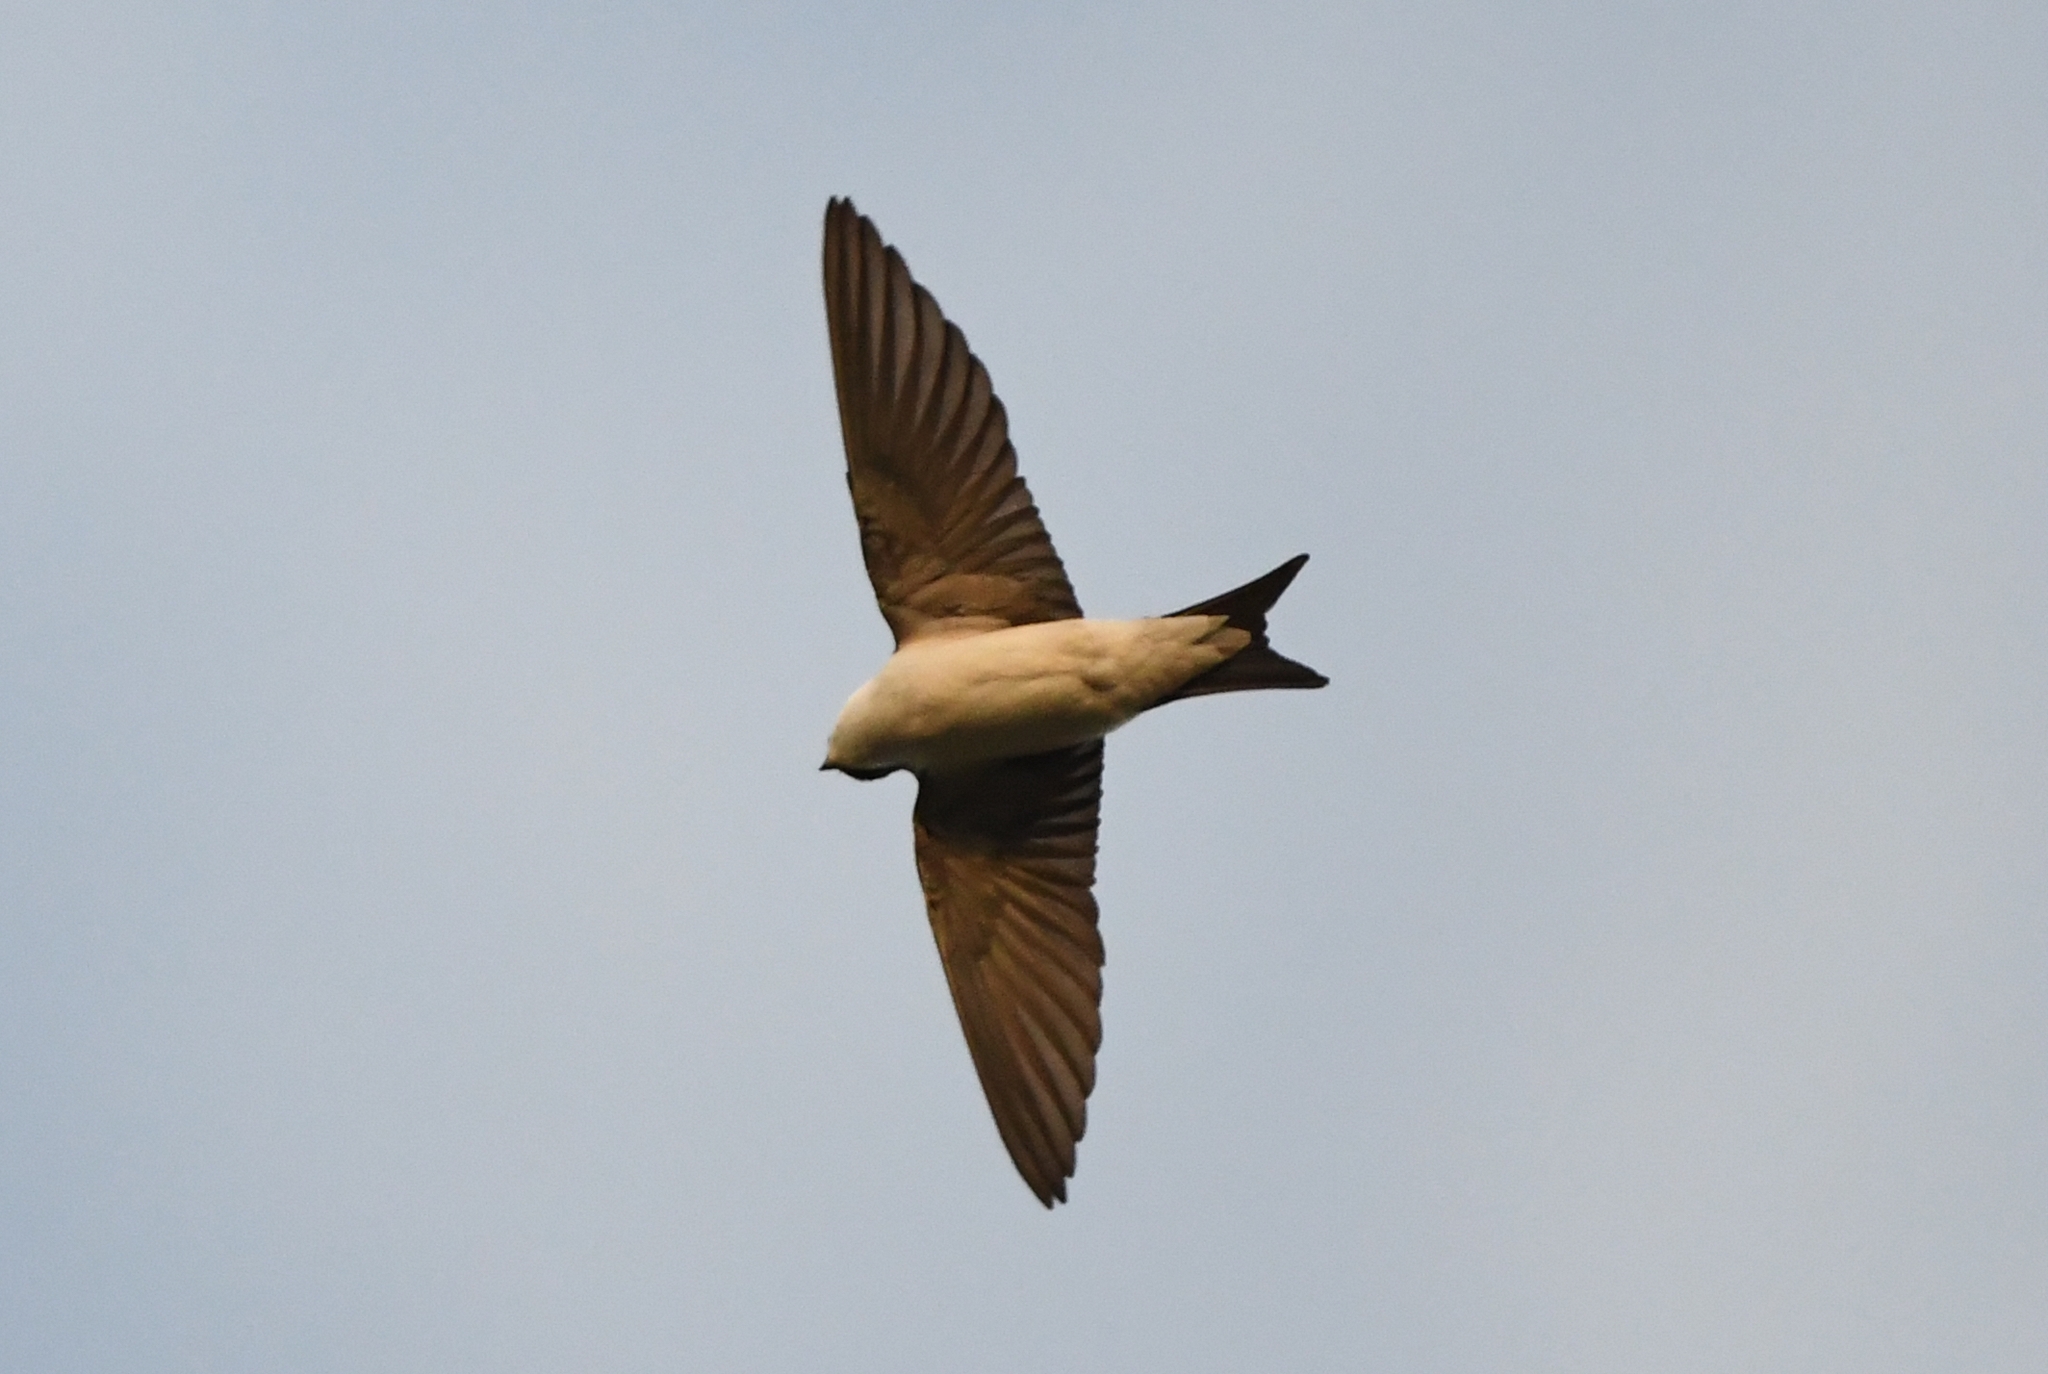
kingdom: Animalia
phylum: Chordata
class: Aves
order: Passeriformes
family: Hirundinidae
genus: Delichon
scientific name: Delichon urbicum
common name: Common house martin
